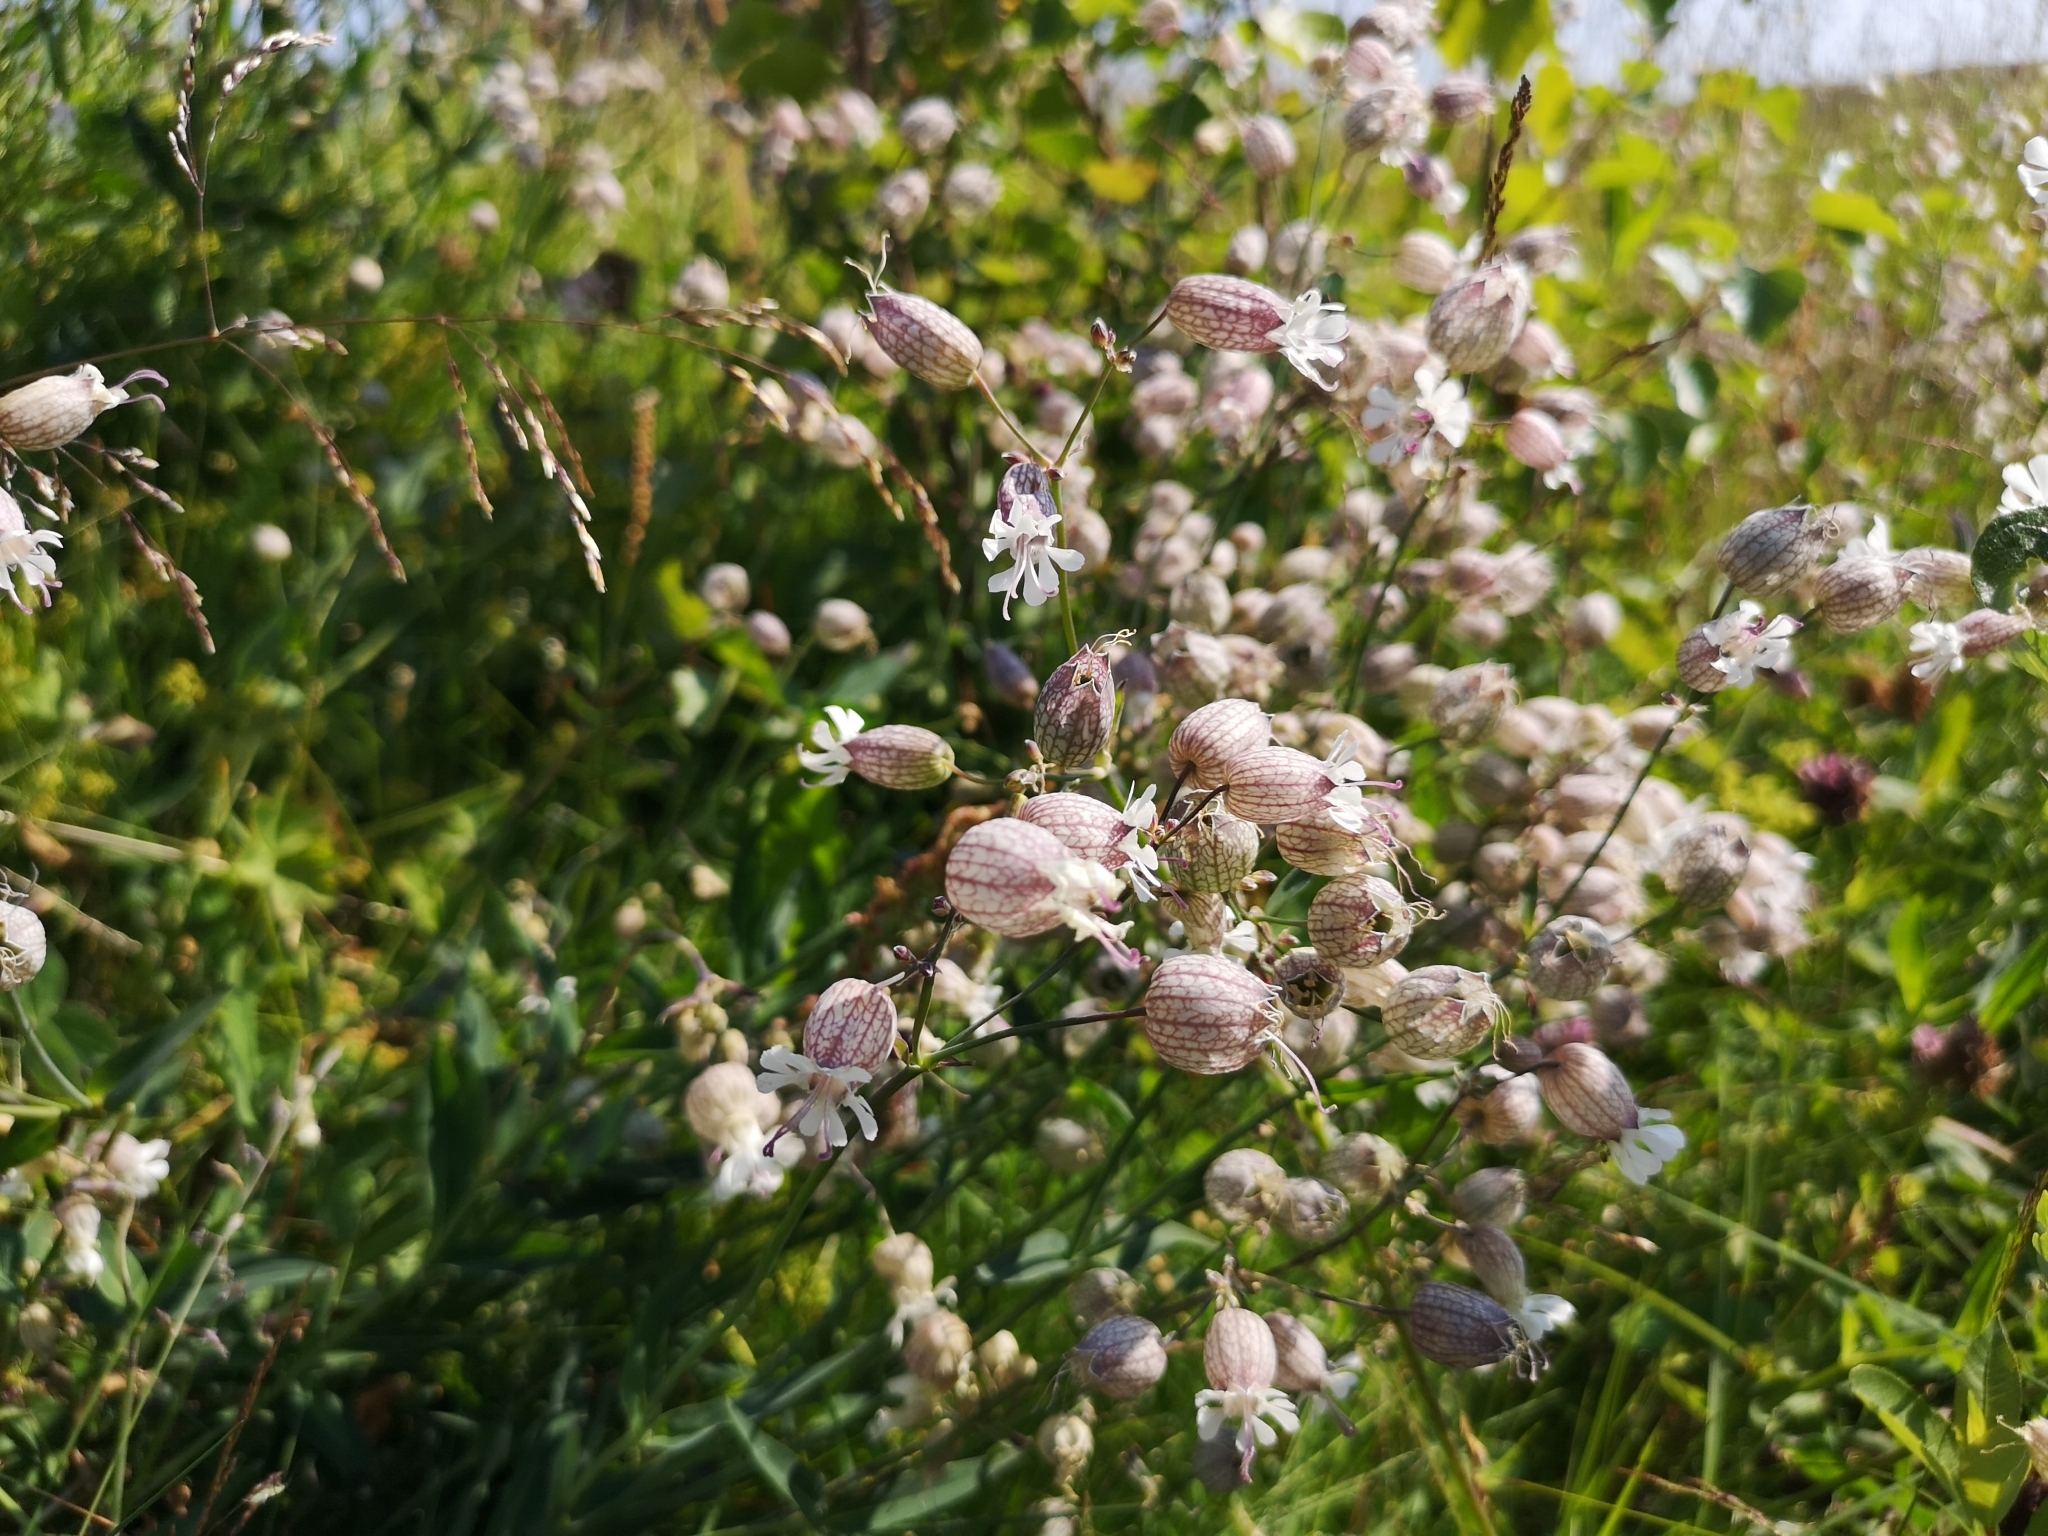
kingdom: Plantae
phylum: Tracheophyta
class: Magnoliopsida
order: Caryophyllales
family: Caryophyllaceae
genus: Silene
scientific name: Silene vulgaris
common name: Bladder campion
